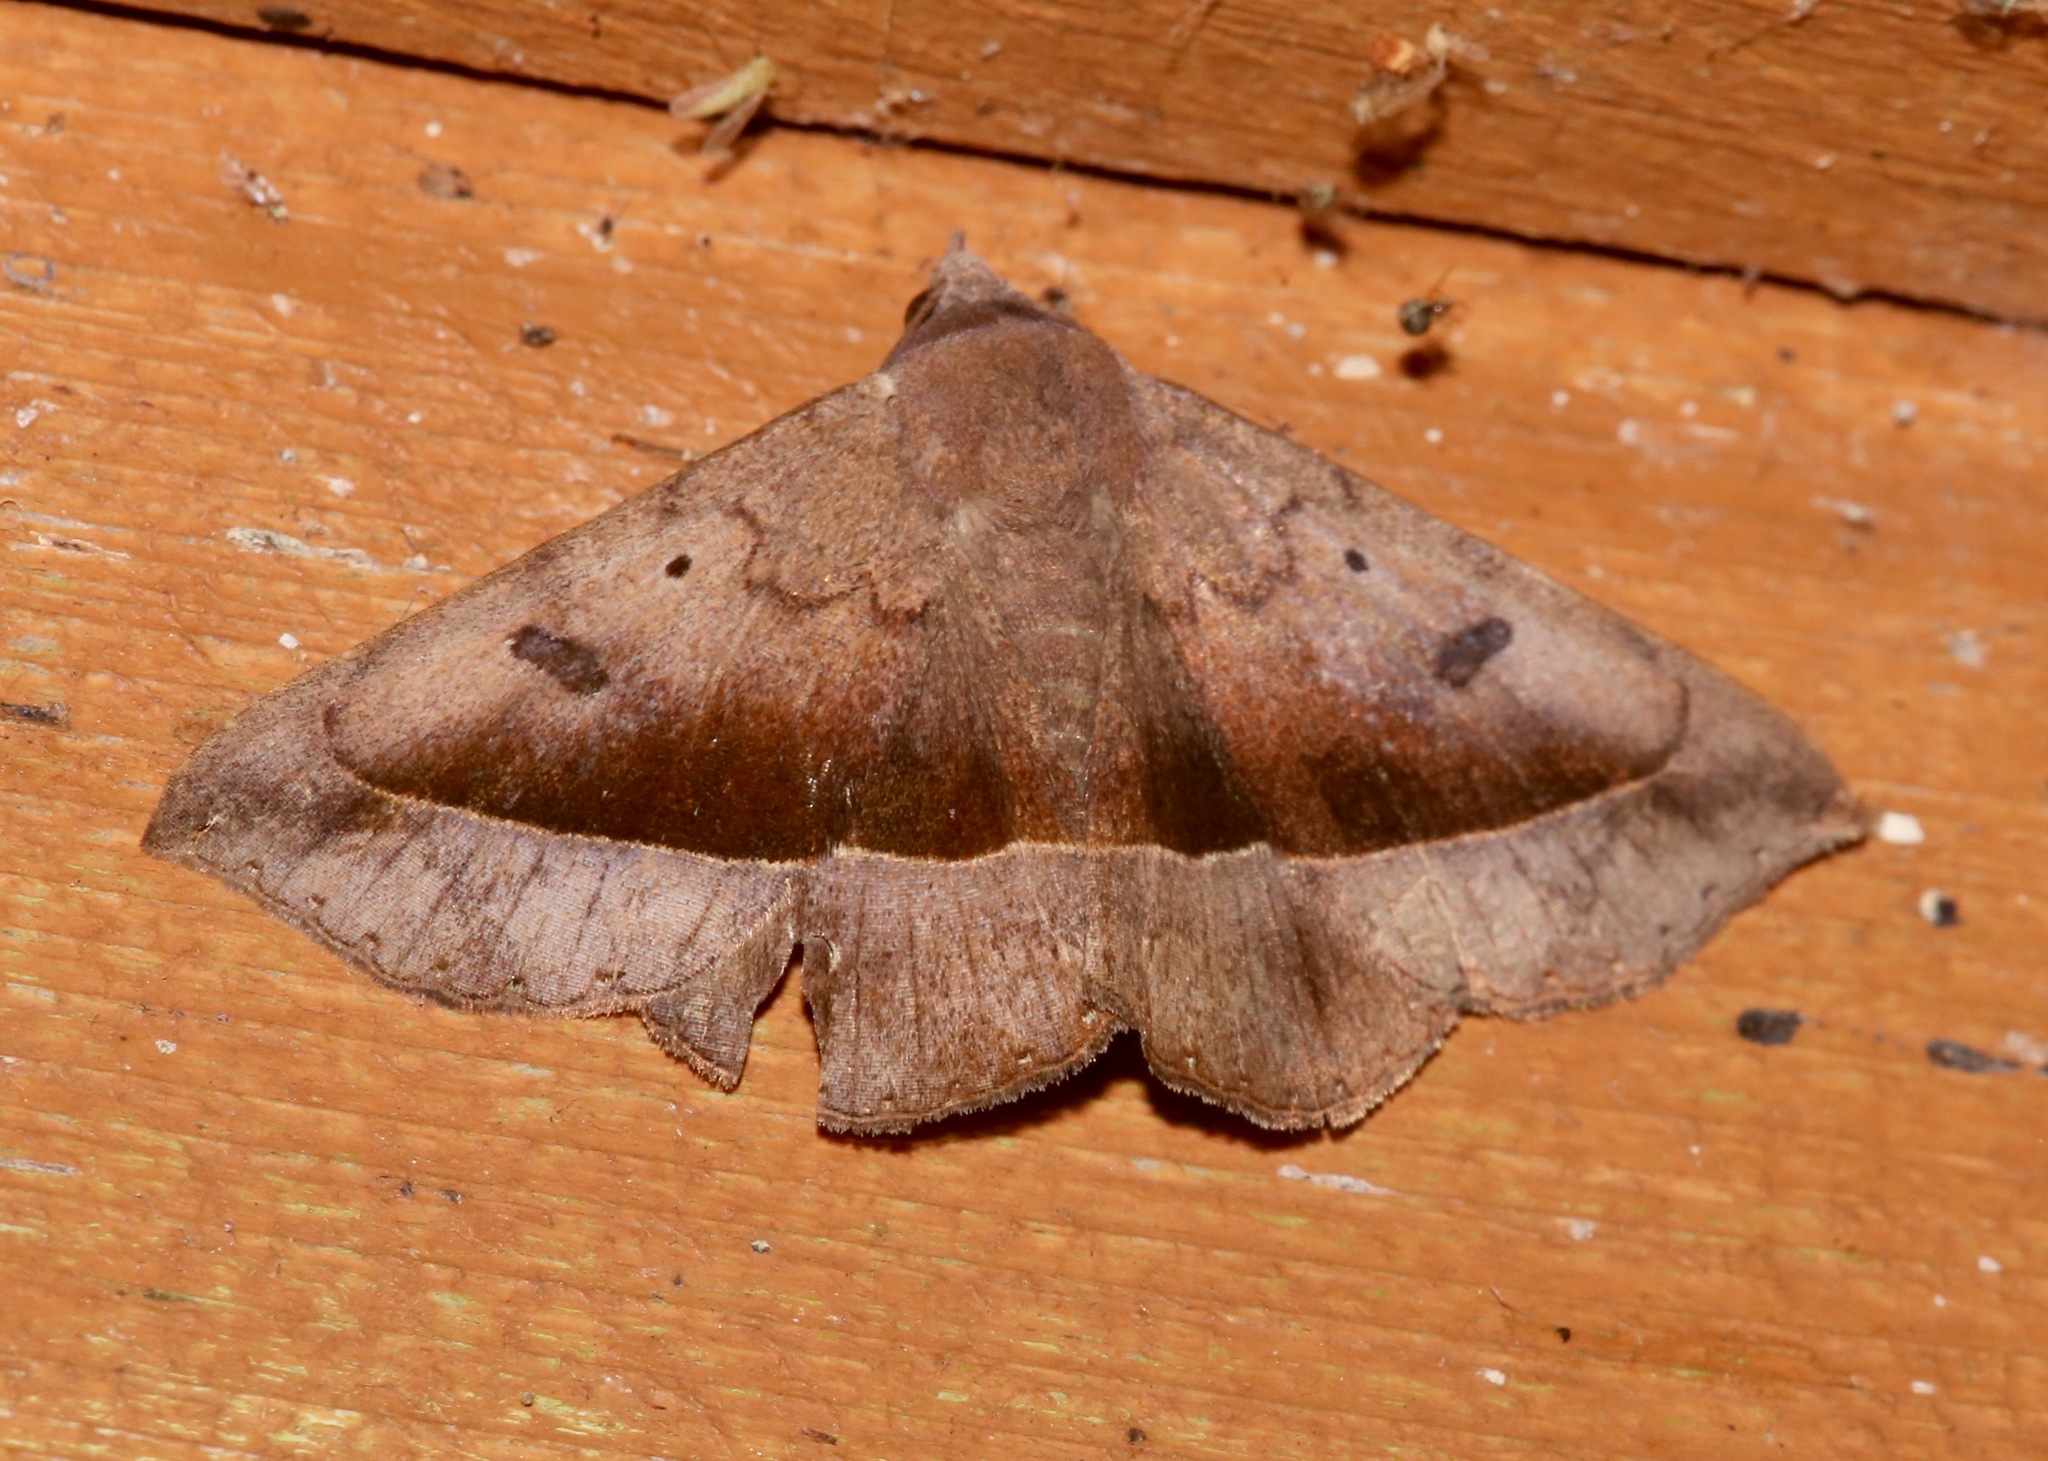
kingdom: Animalia
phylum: Arthropoda
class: Insecta
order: Lepidoptera
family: Erebidae
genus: Epidromia
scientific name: Epidromia rotundata
